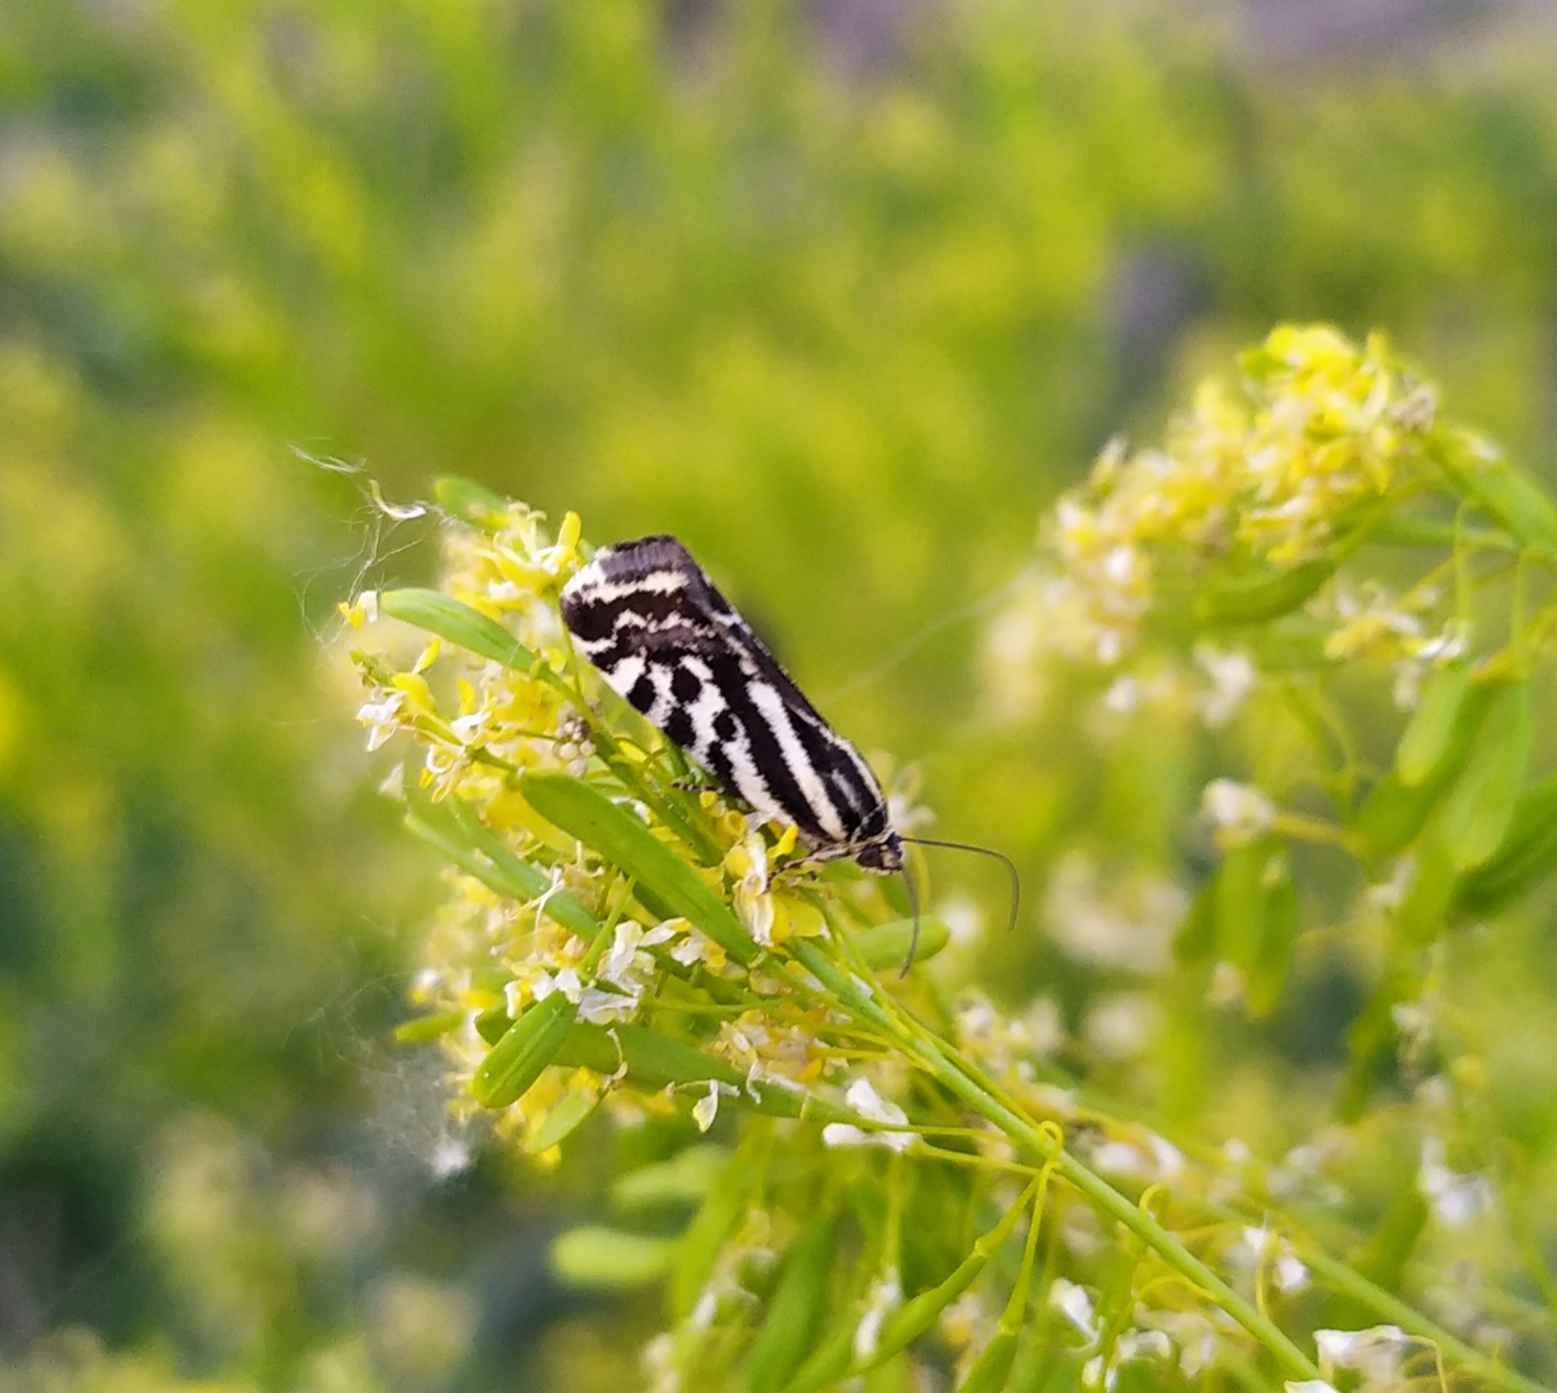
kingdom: Animalia
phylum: Arthropoda
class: Insecta
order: Lepidoptera
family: Noctuidae
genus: Acontia
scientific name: Acontia trabealis
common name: Spotted sulphur
